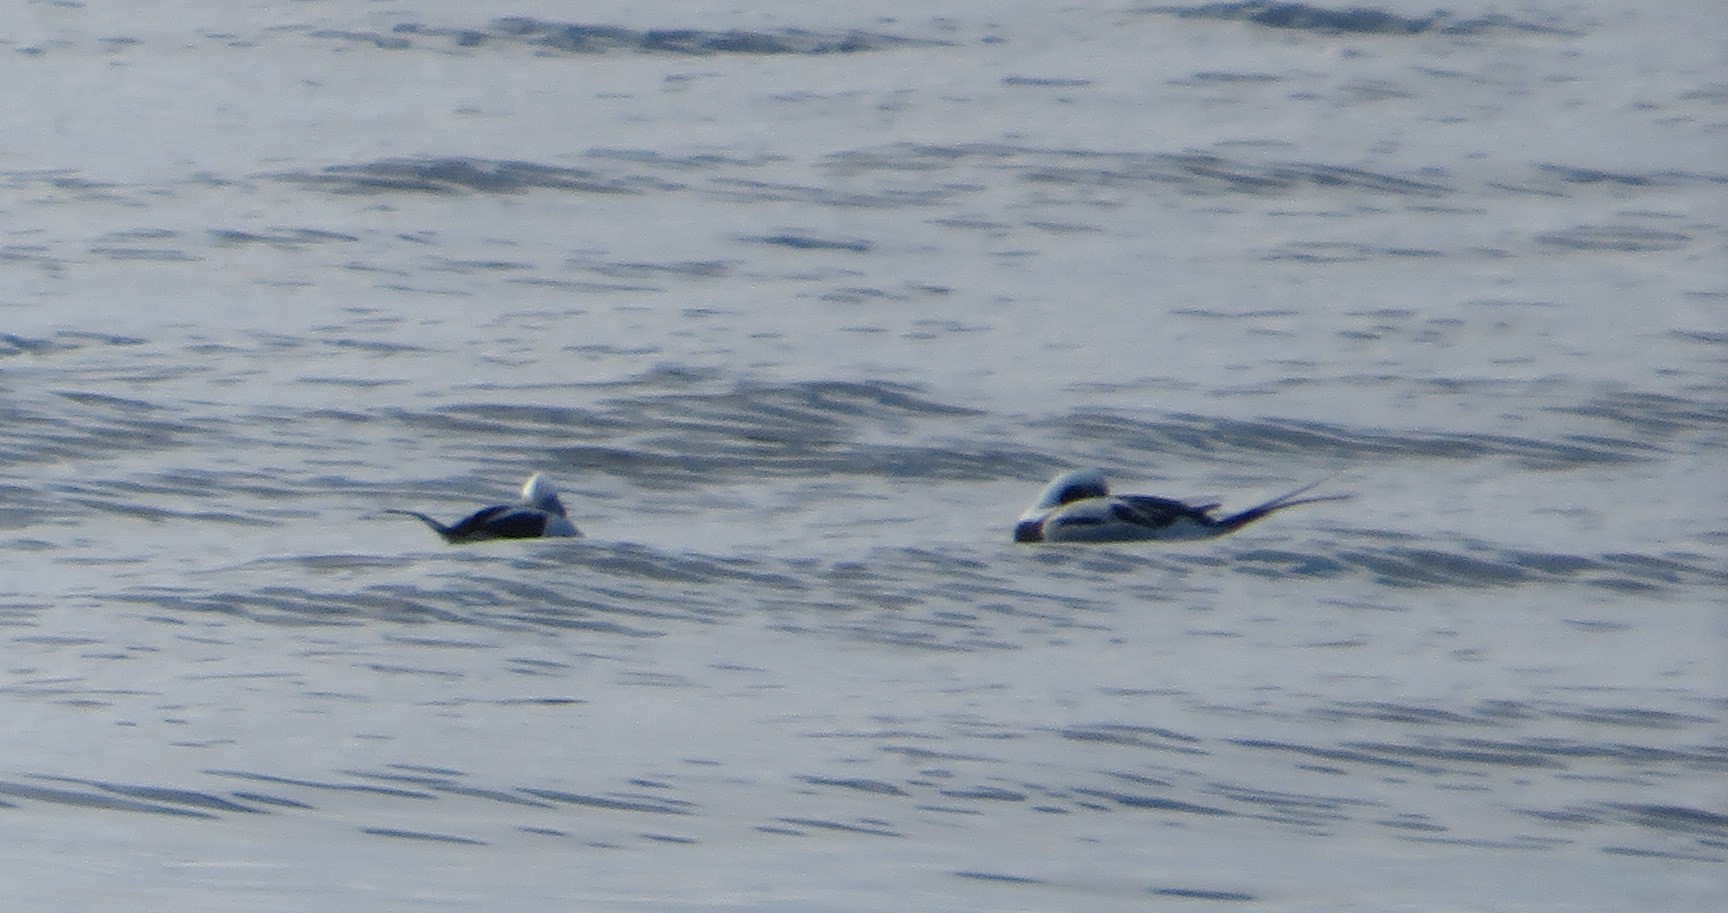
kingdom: Animalia
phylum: Chordata
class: Aves
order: Anseriformes
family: Anatidae
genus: Clangula
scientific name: Clangula hyemalis
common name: Long-tailed duck
